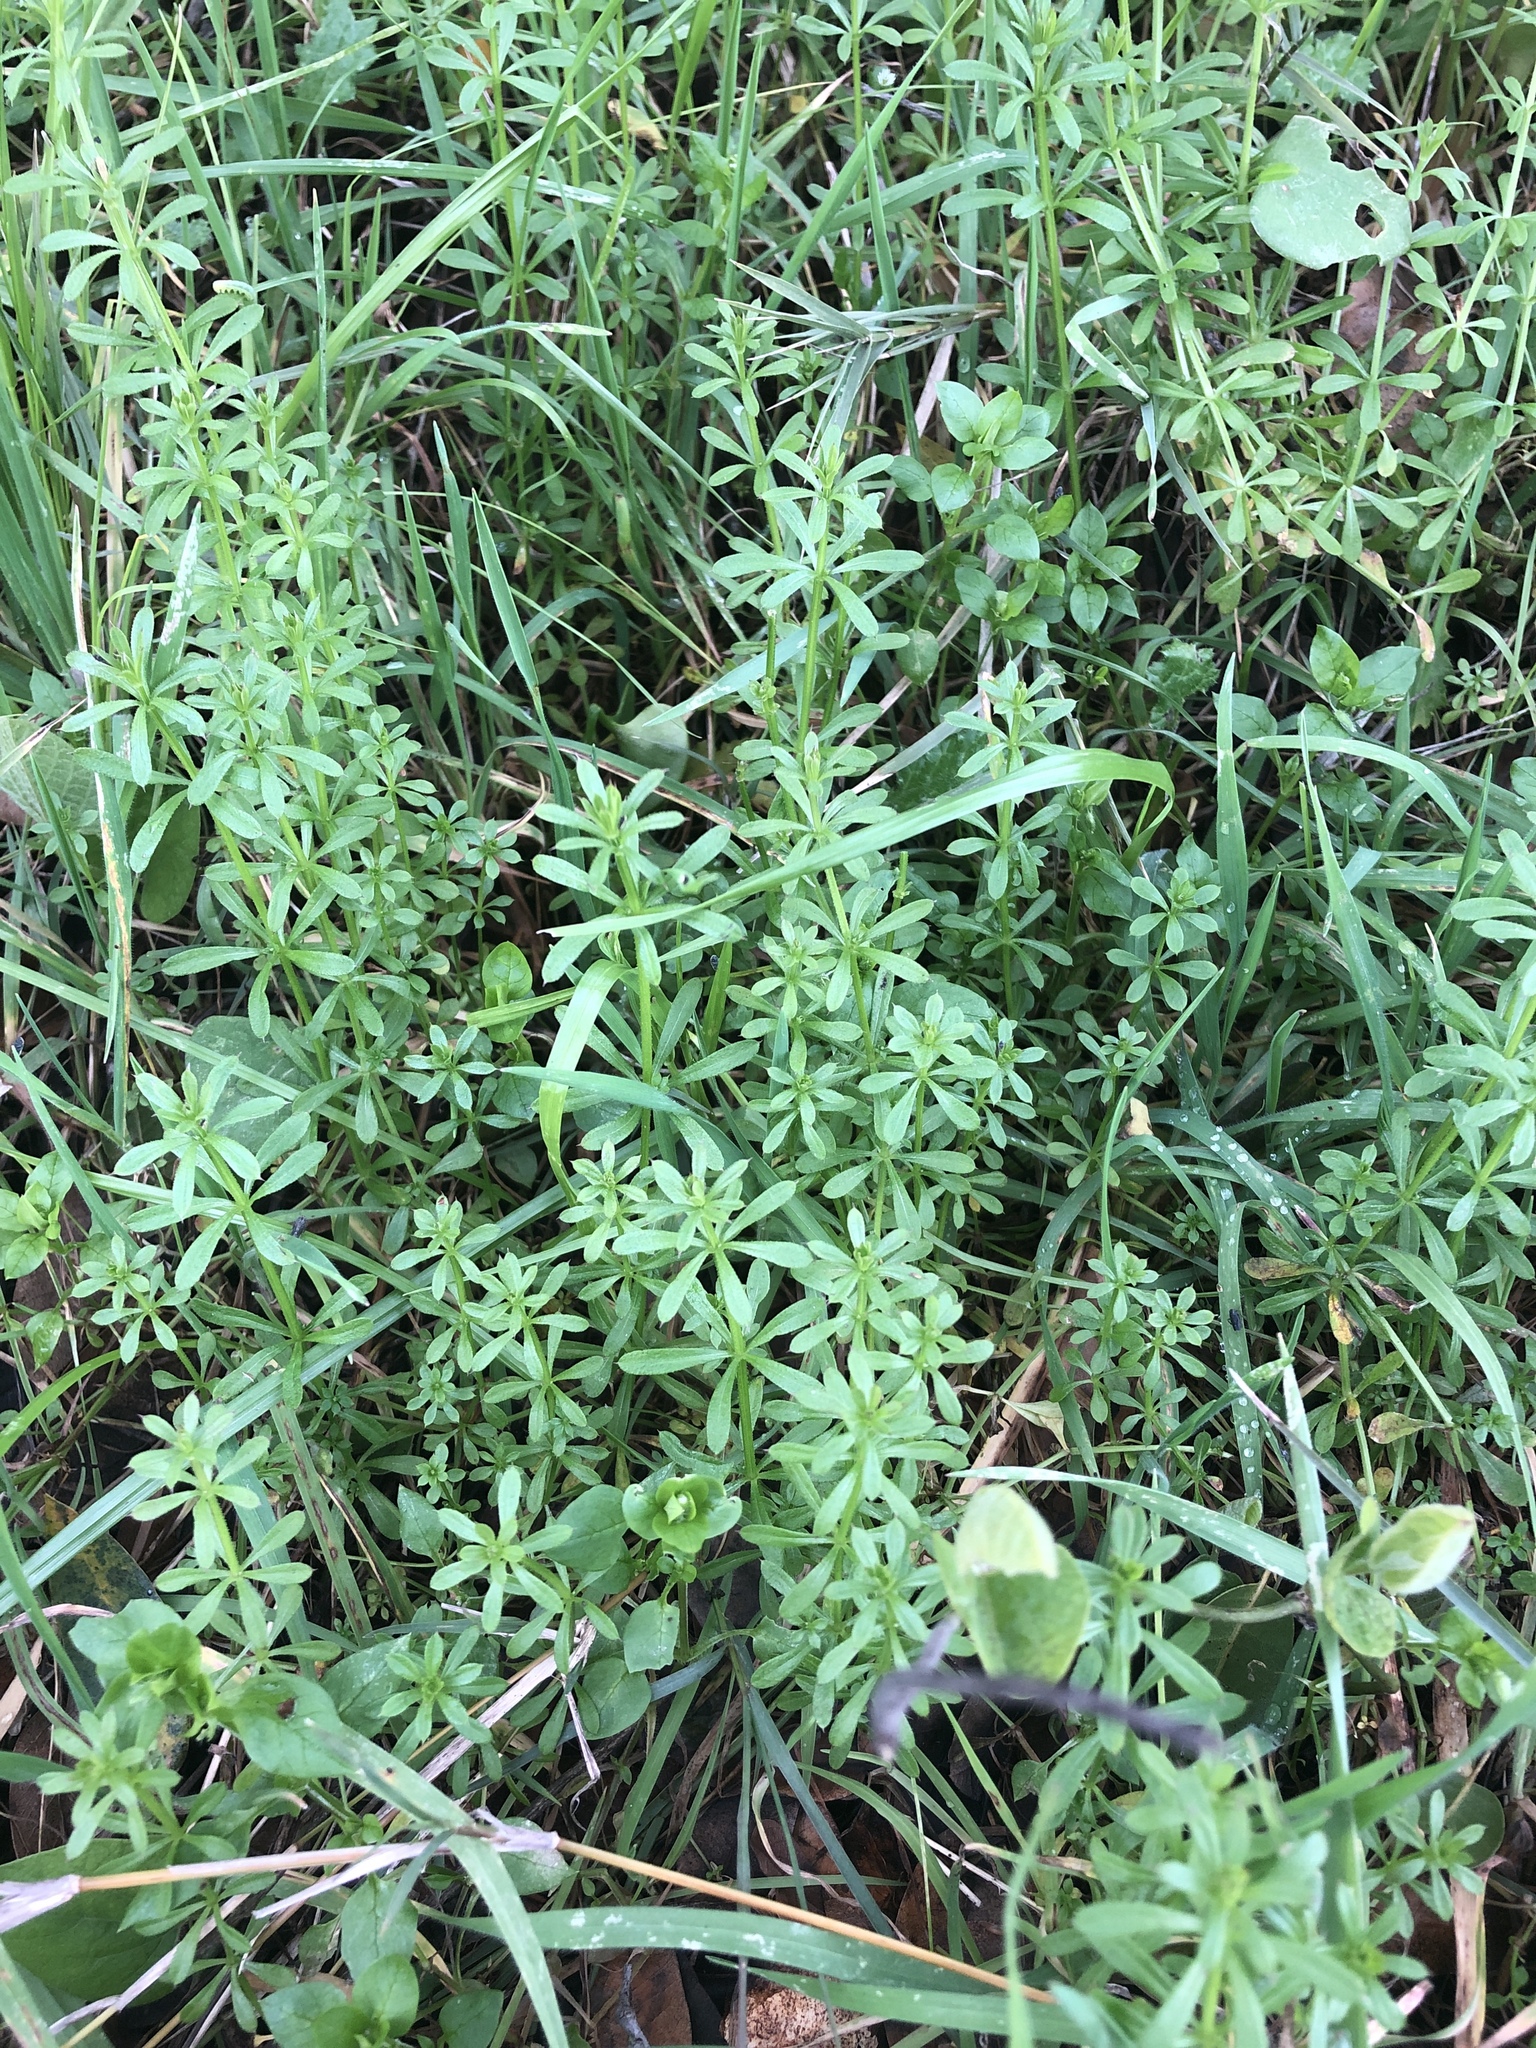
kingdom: Plantae
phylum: Tracheophyta
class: Magnoliopsida
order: Gentianales
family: Rubiaceae
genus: Galium
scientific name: Galium aparine
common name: Cleavers
